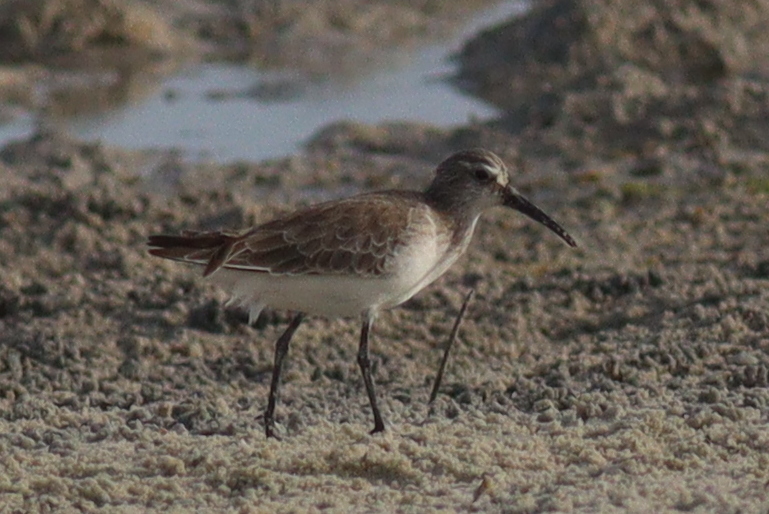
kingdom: Animalia
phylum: Chordata
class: Aves
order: Charadriiformes
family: Scolopacidae
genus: Calidris
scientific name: Calidris ferruginea
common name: Curlew sandpiper
